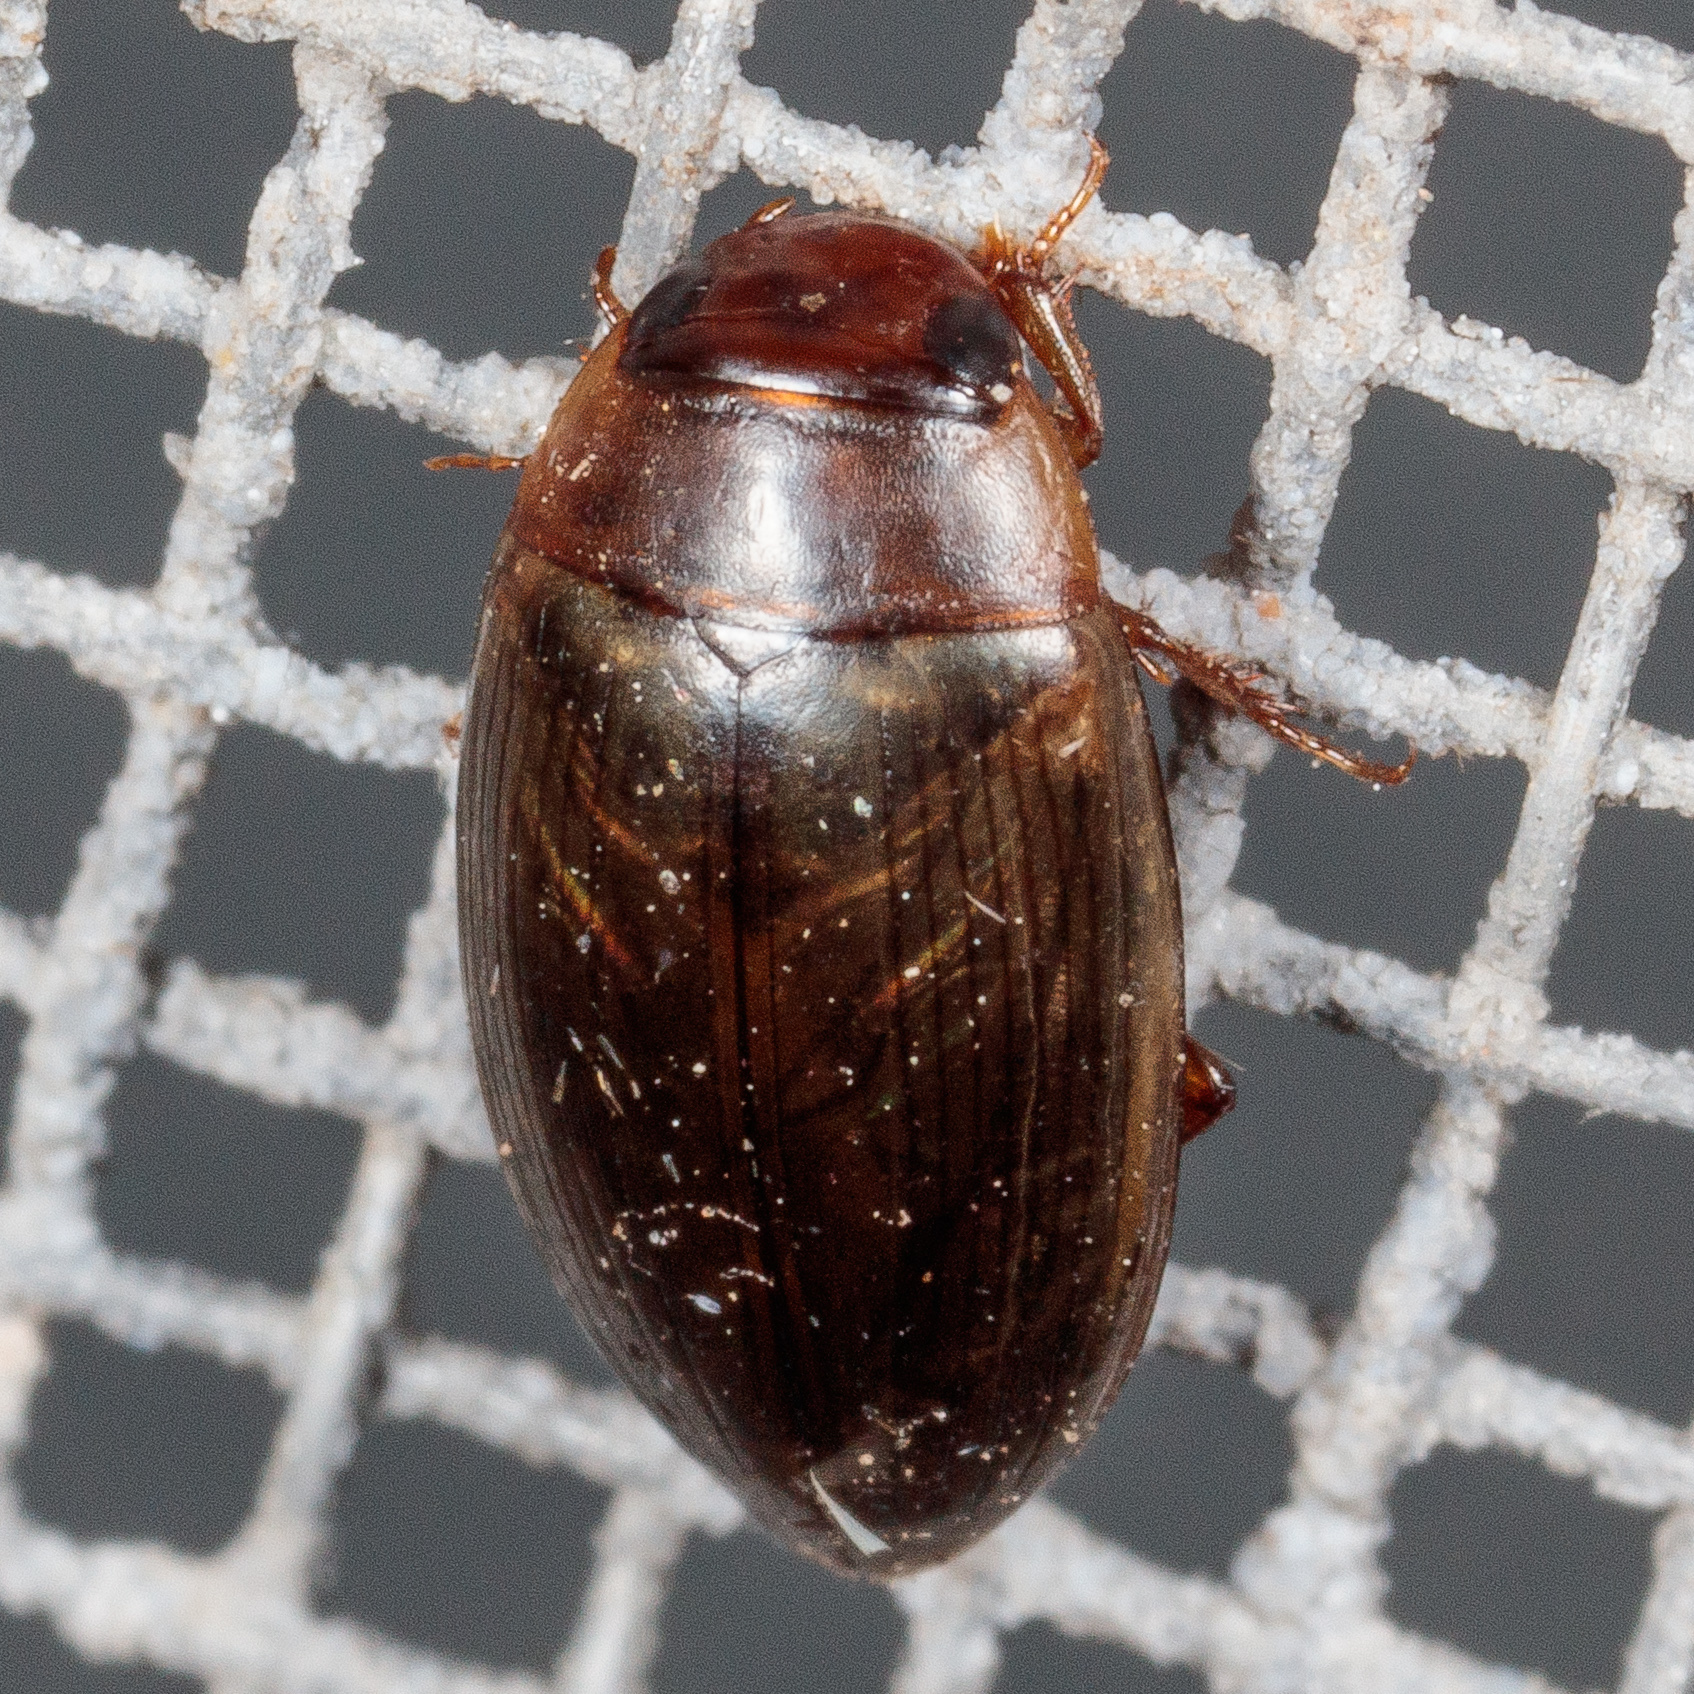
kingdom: Animalia
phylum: Arthropoda
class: Insecta
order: Coleoptera
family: Dytiscidae
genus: Copelatus
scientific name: Copelatus chevrolati
